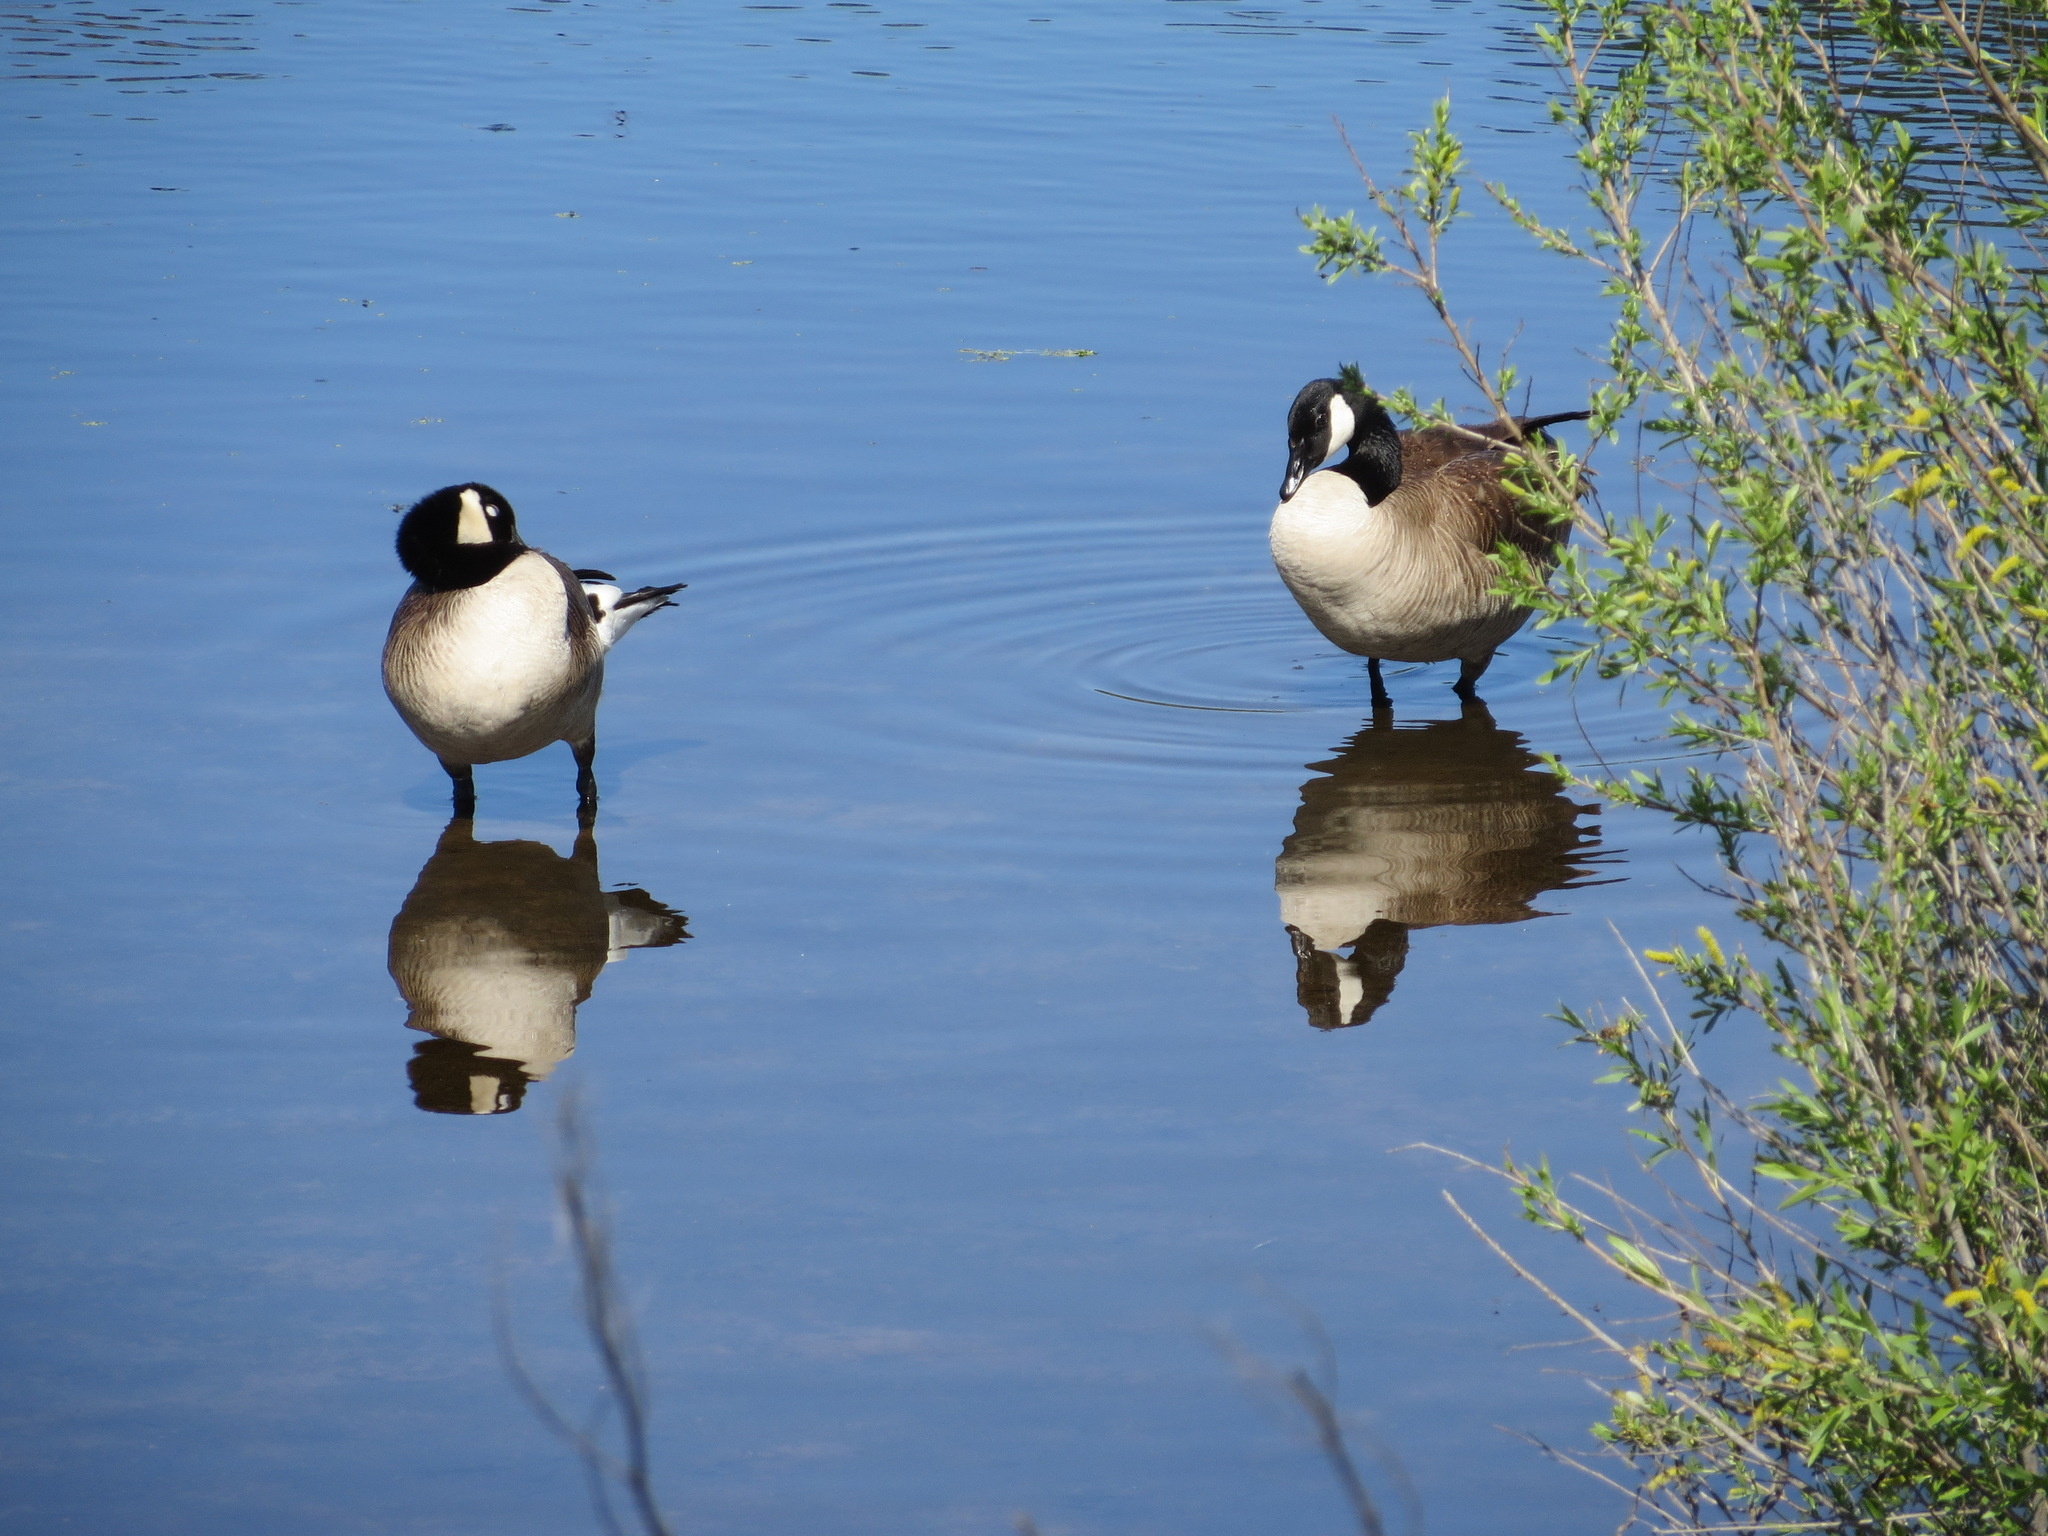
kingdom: Animalia
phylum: Chordata
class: Aves
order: Anseriformes
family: Anatidae
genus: Branta
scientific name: Branta canadensis
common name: Canada goose
